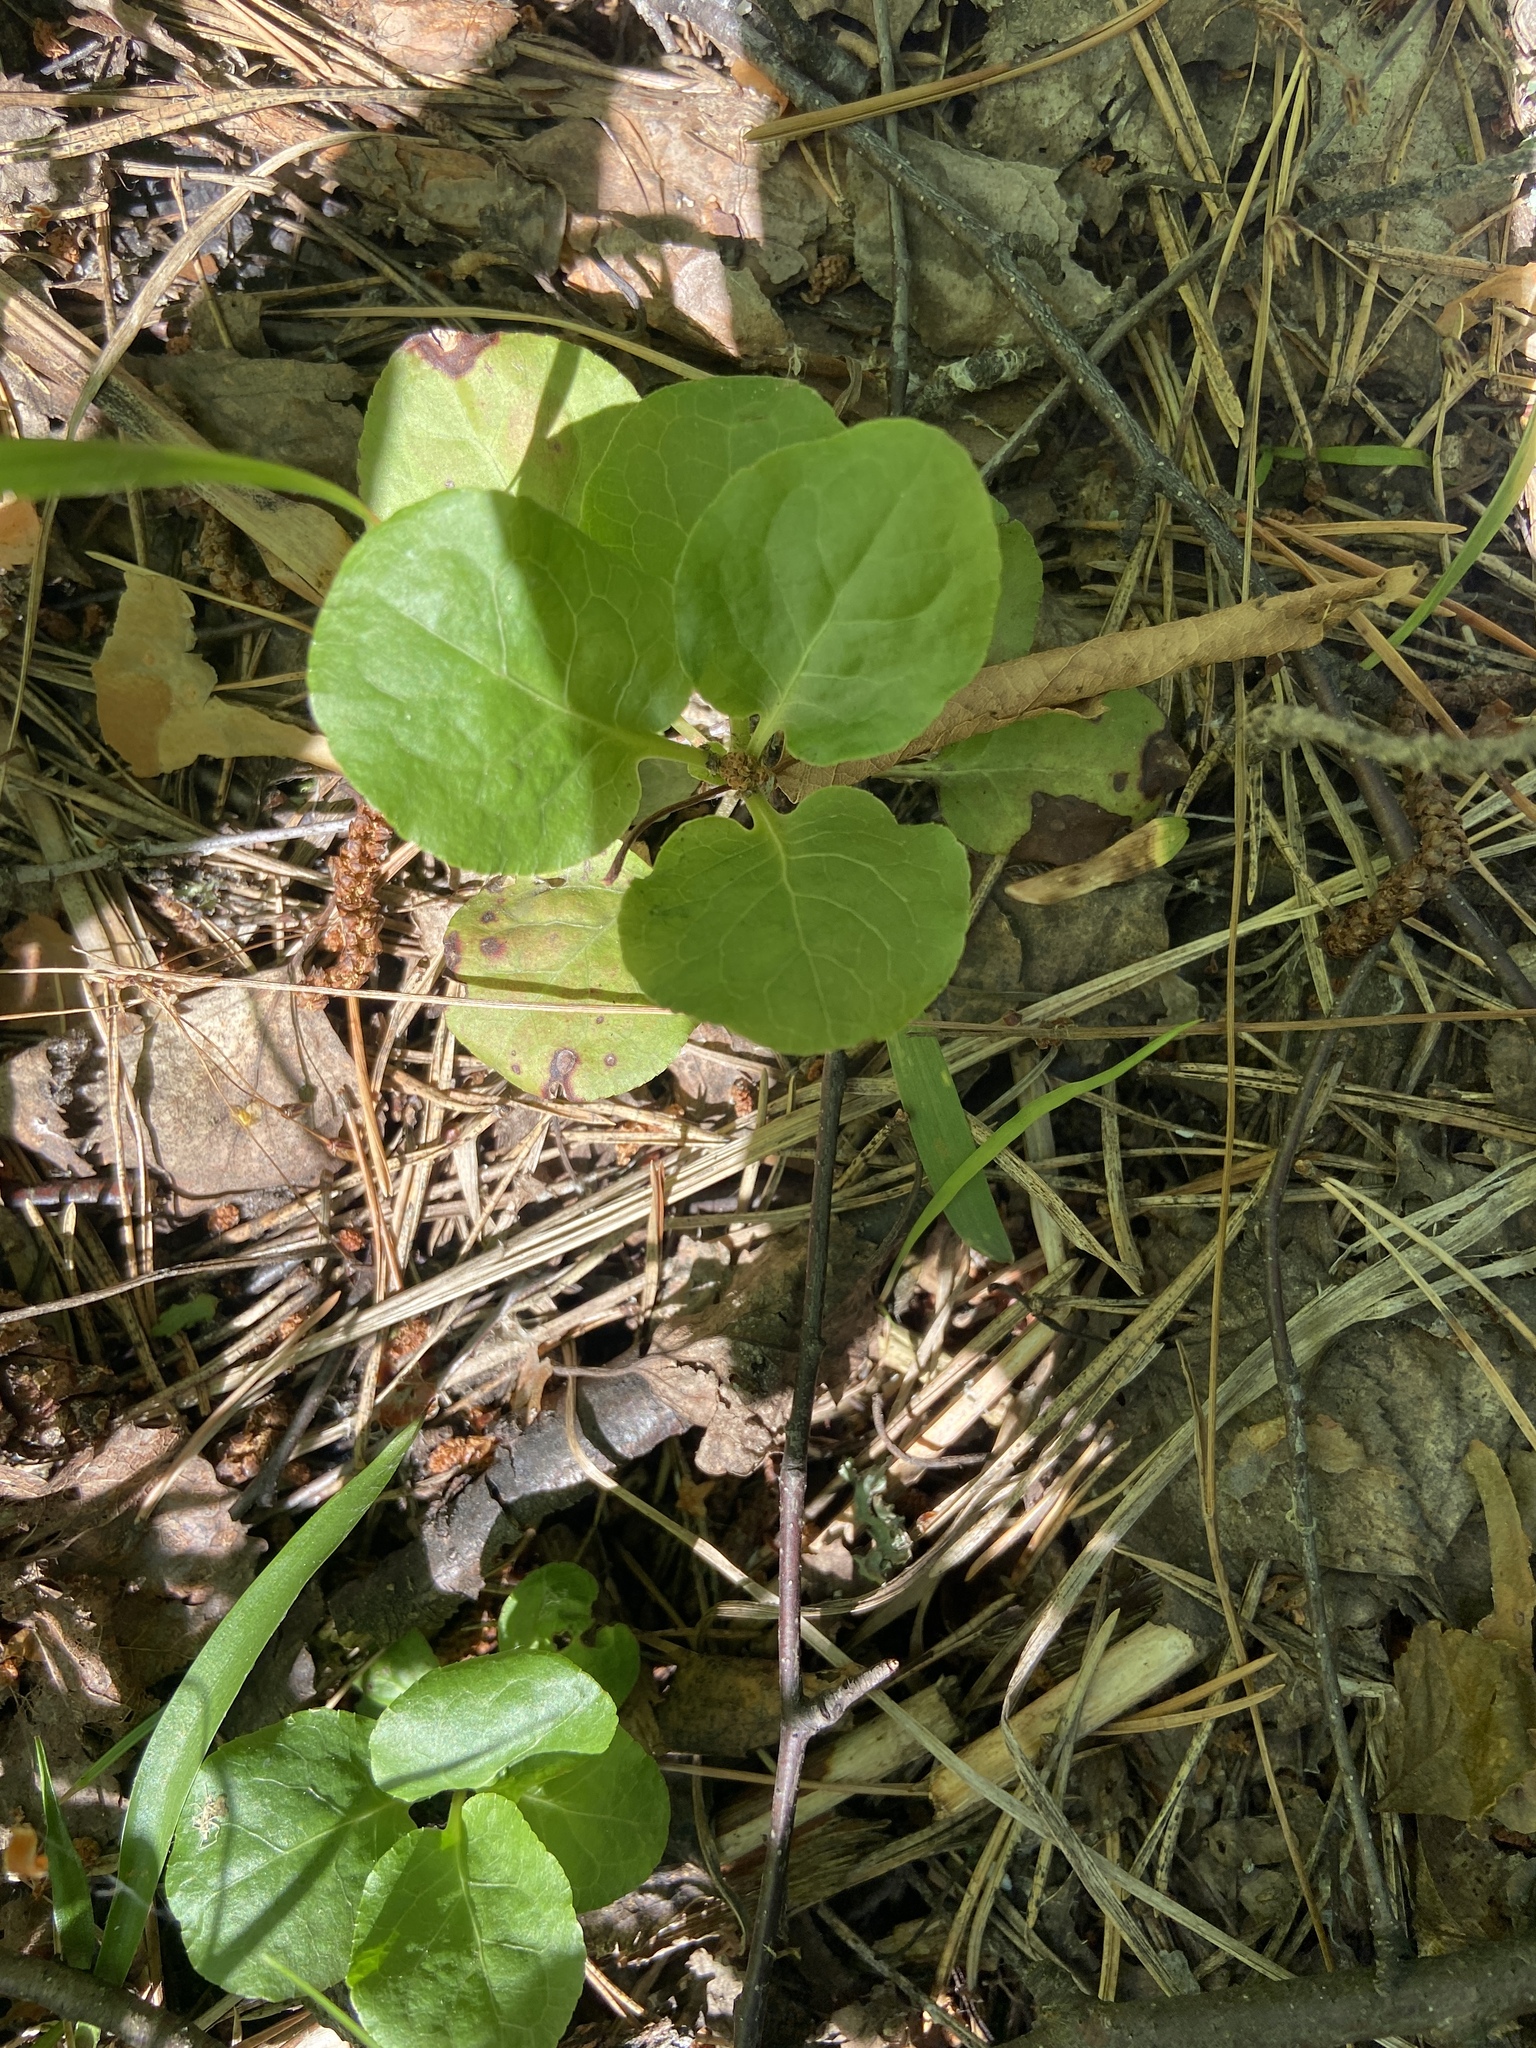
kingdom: Plantae
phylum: Tracheophyta
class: Magnoliopsida
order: Ericales
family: Ericaceae
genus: Pyrola
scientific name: Pyrola minor
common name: Common wintergreen
